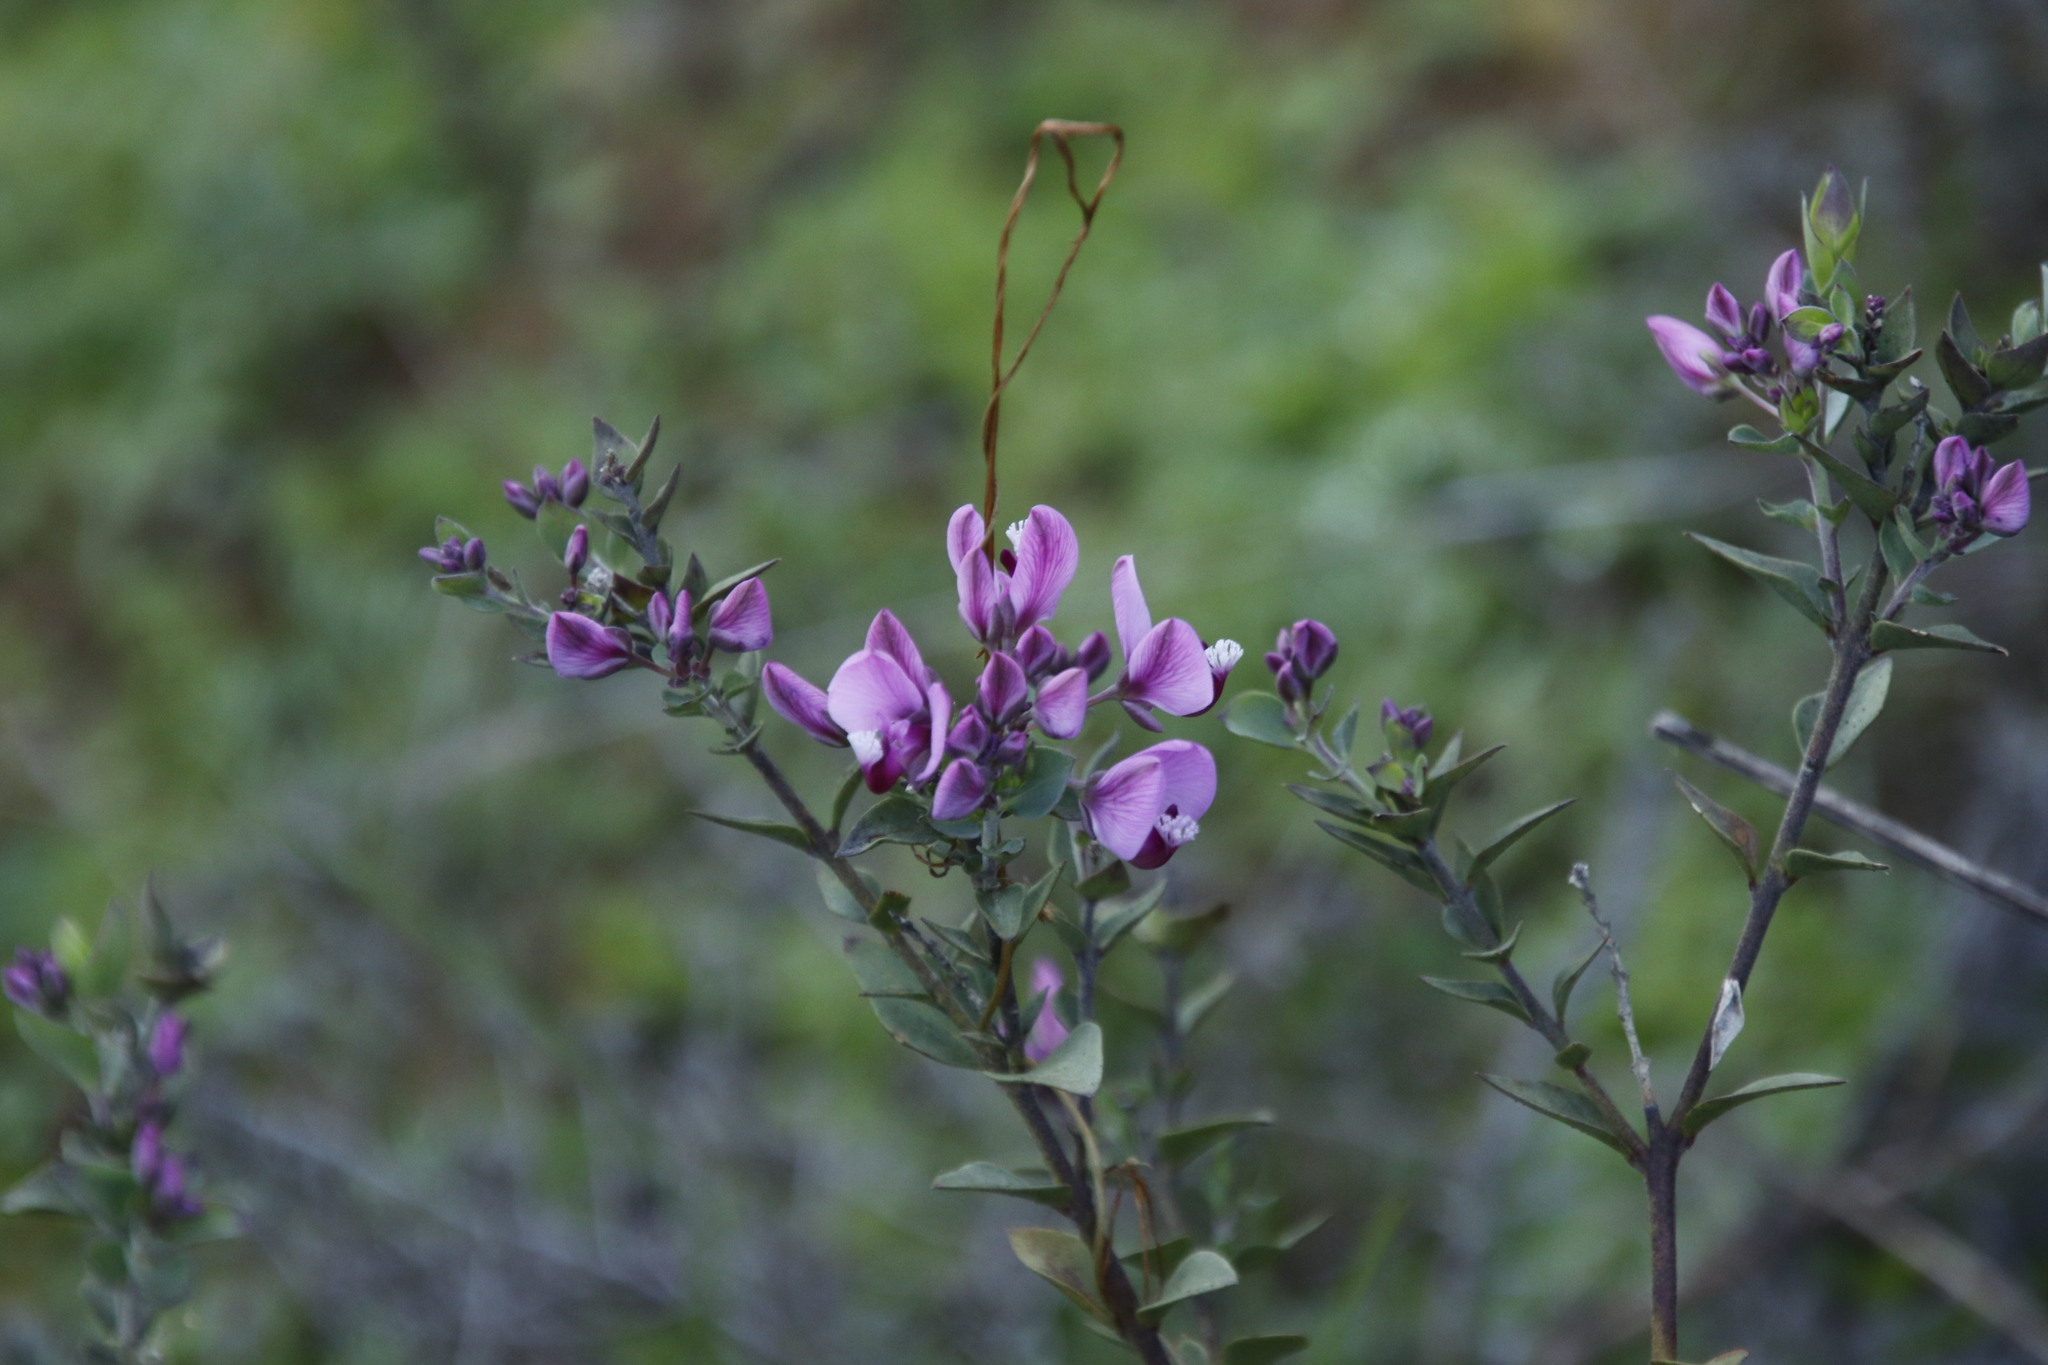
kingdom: Plantae
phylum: Tracheophyta
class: Magnoliopsida
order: Fabales
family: Polygalaceae
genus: Polygala
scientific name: Polygala fruticosa
